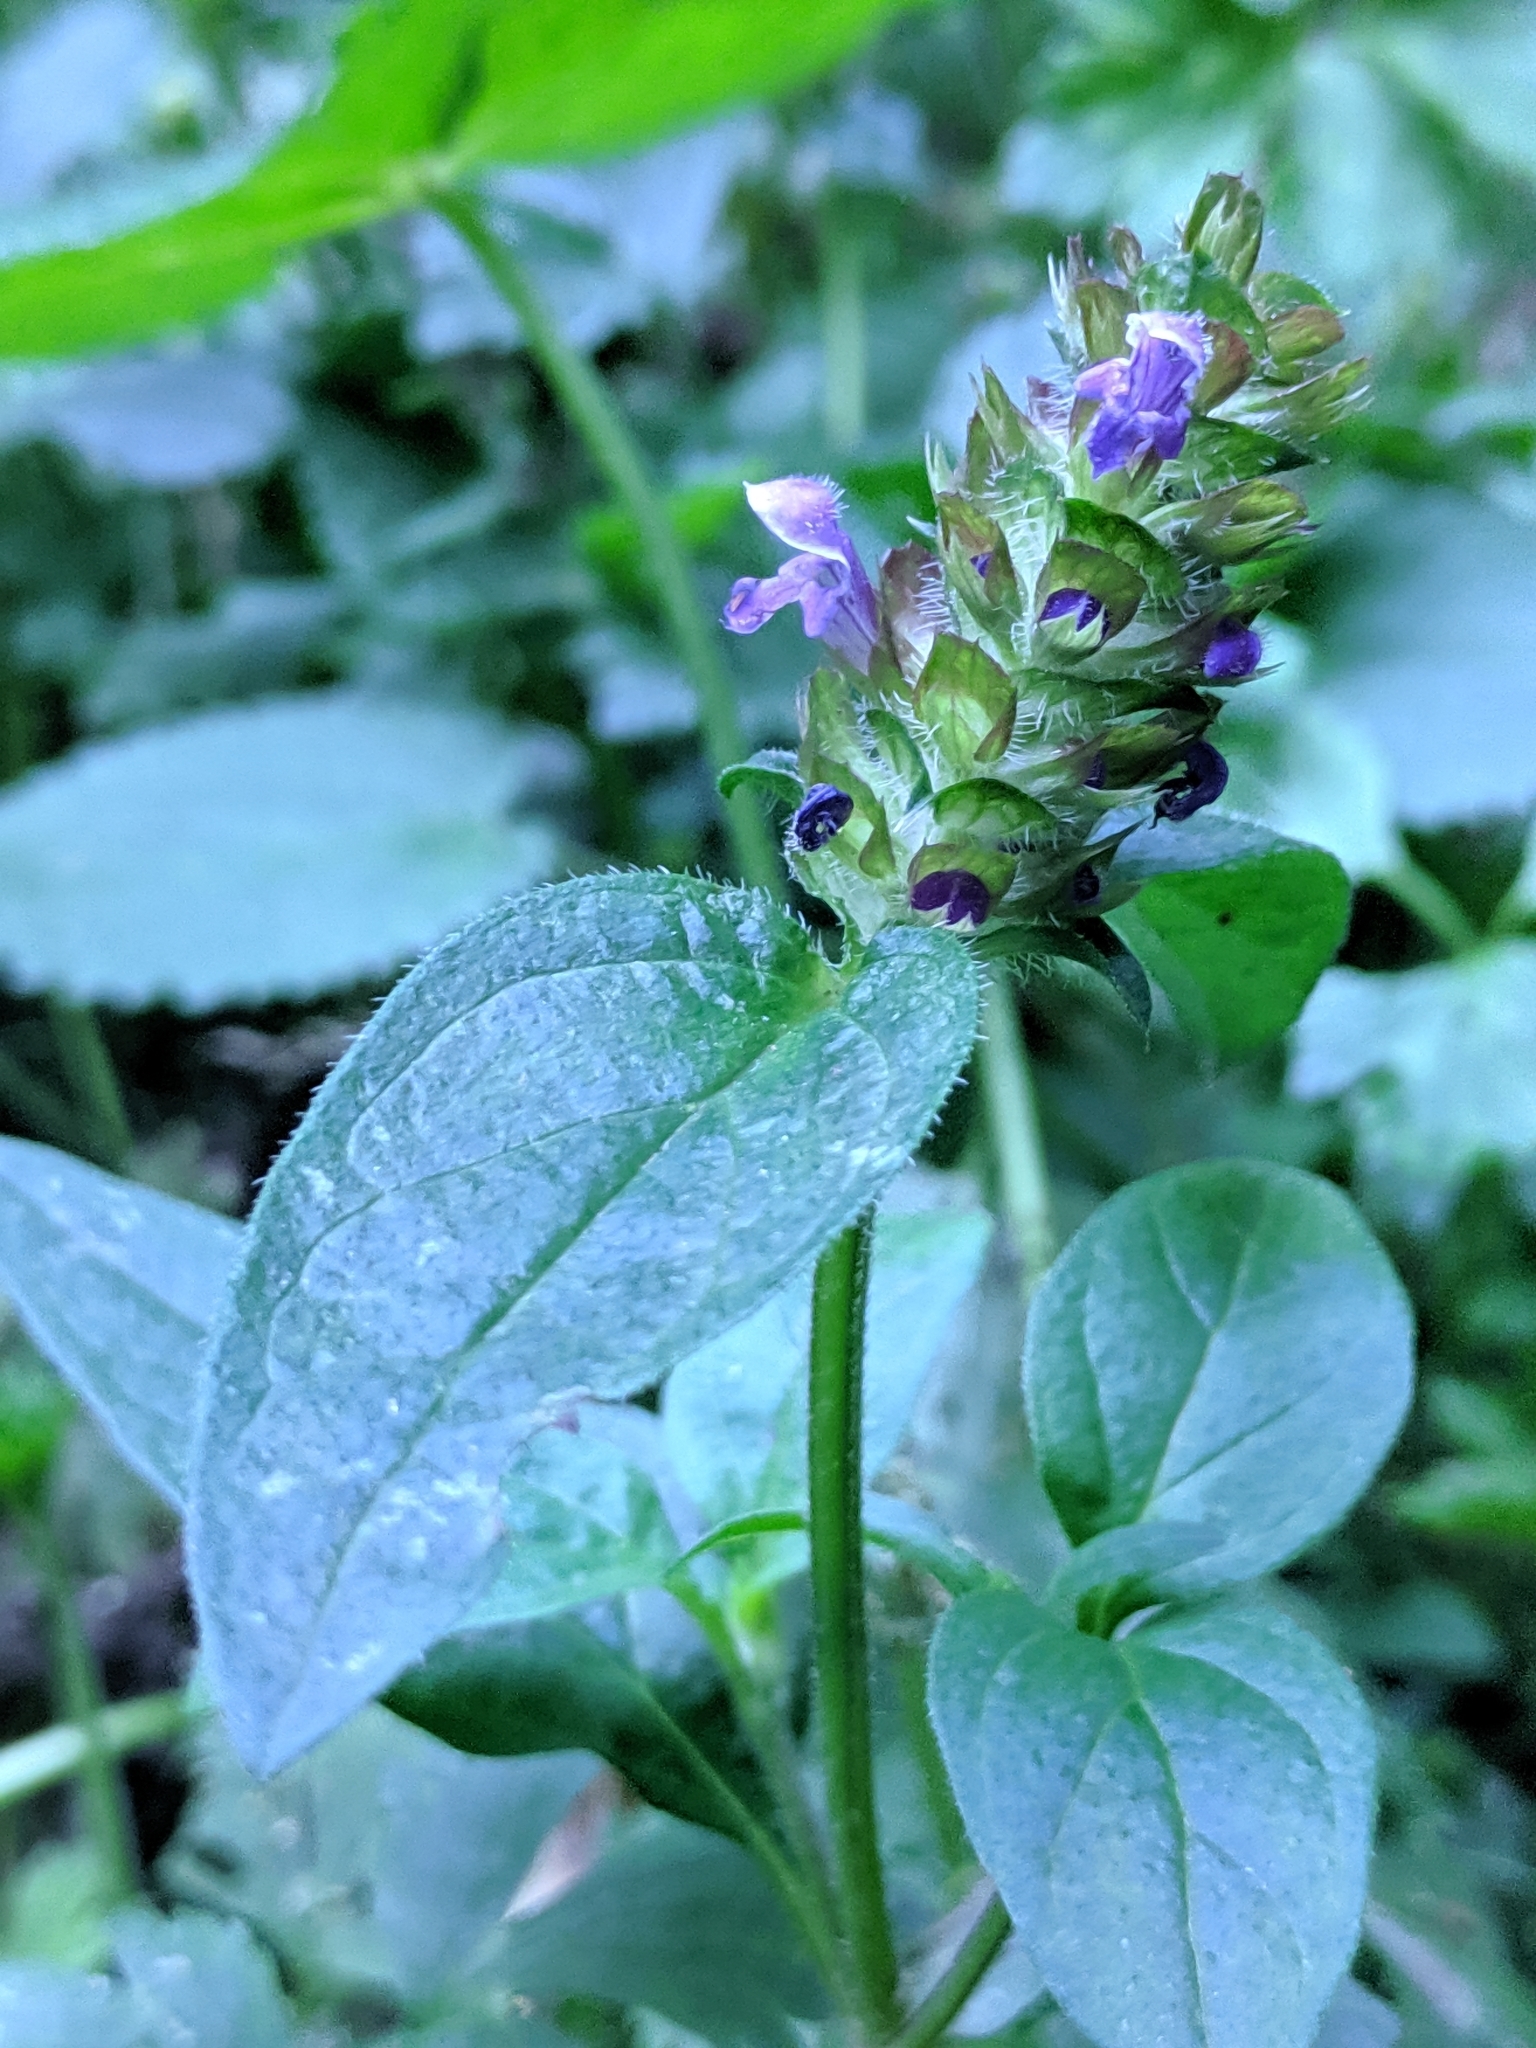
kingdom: Plantae
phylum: Tracheophyta
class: Magnoliopsida
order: Lamiales
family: Lamiaceae
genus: Prunella
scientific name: Prunella vulgaris
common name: Heal-all
